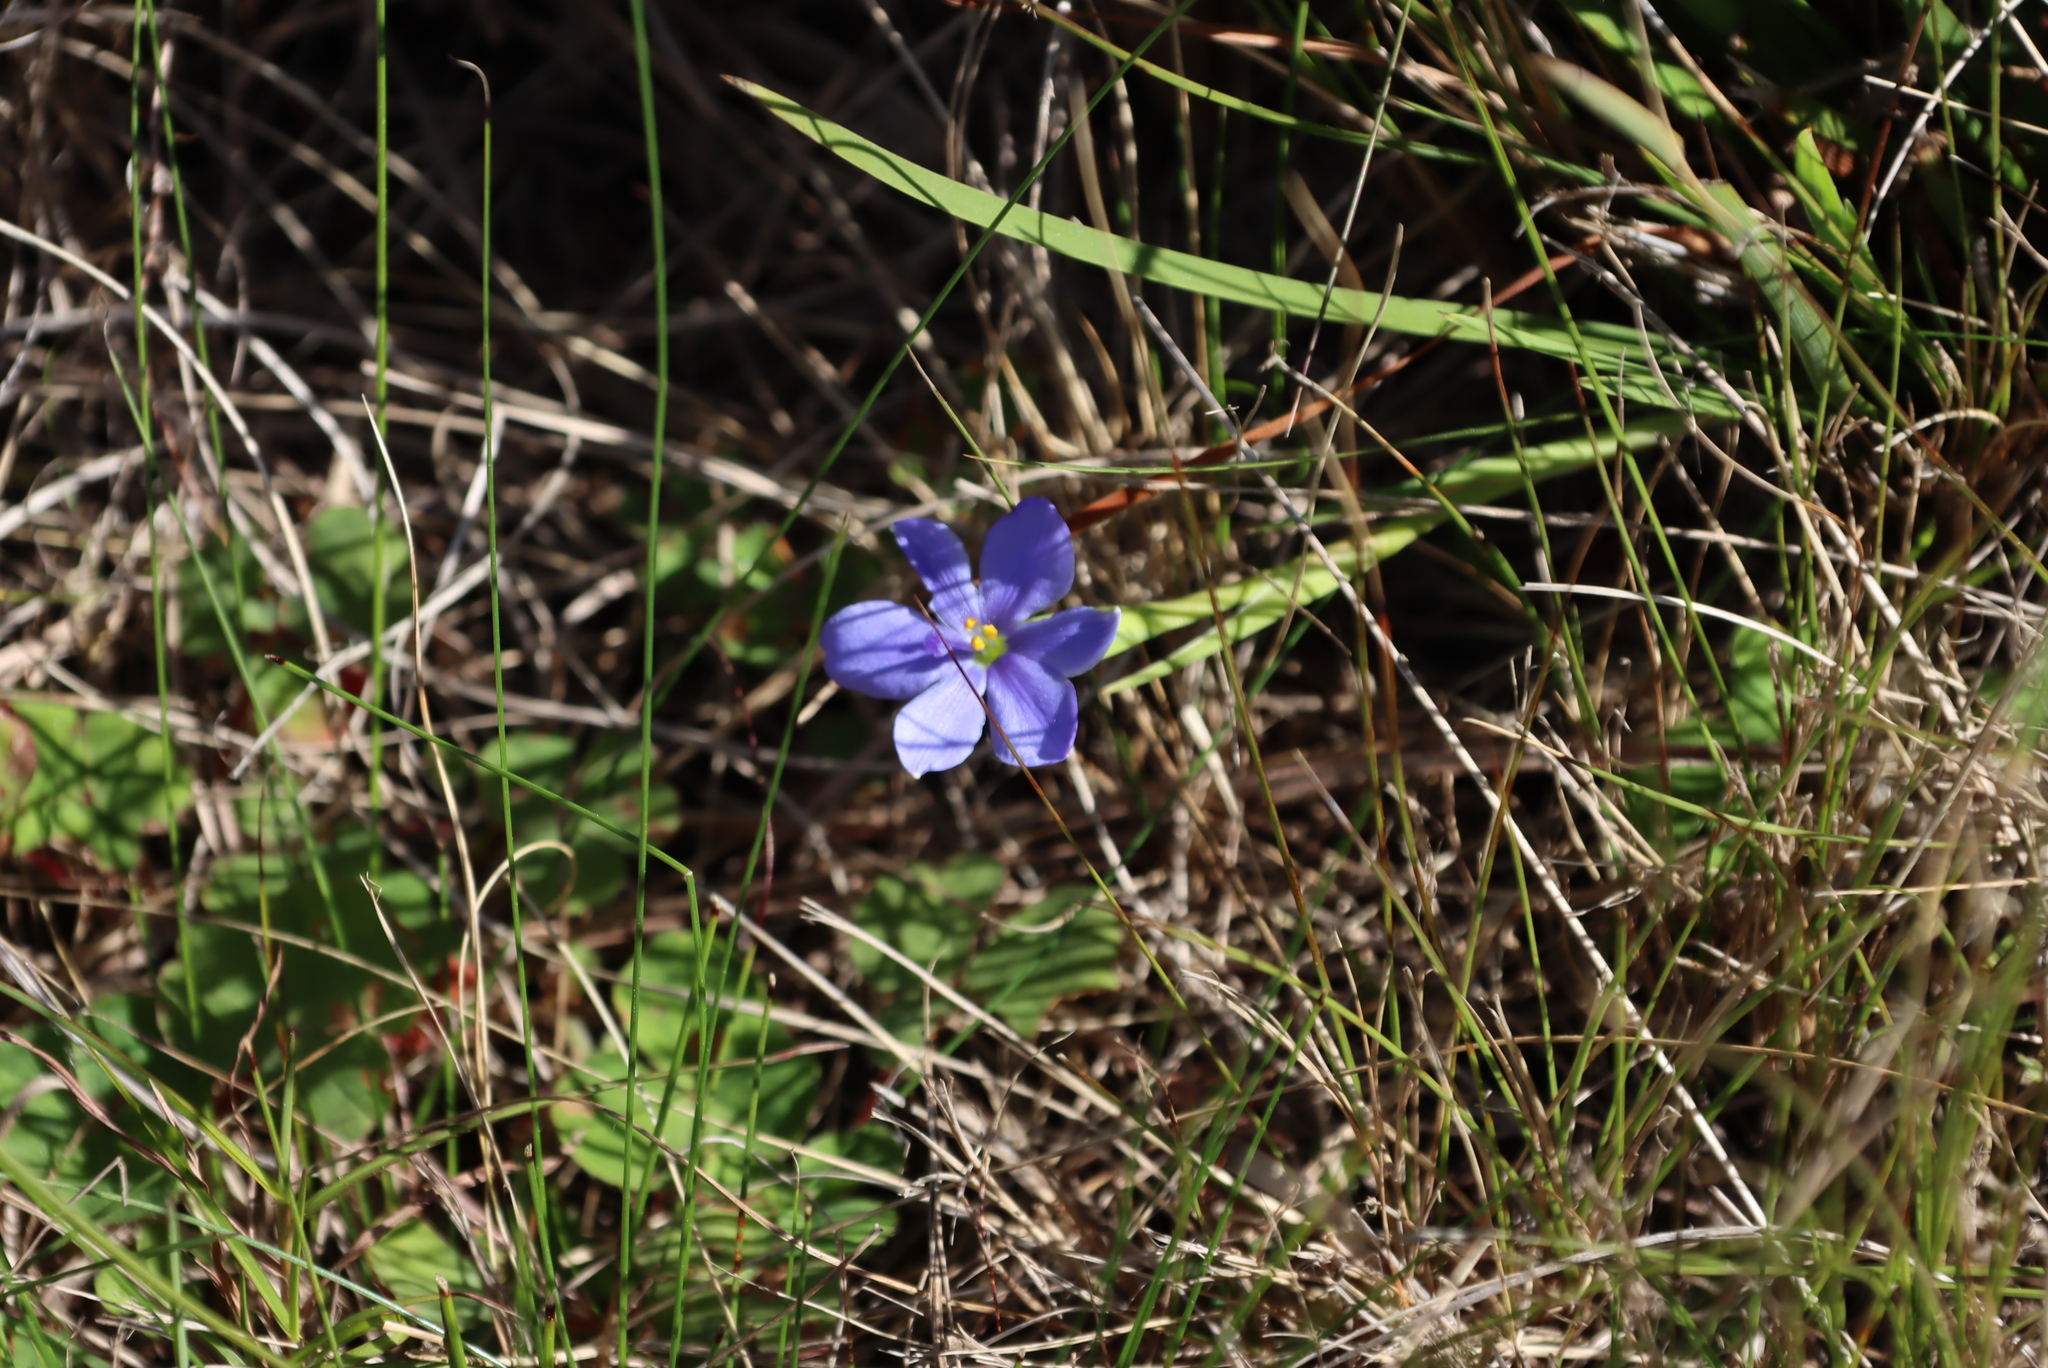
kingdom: Plantae
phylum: Tracheophyta
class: Liliopsida
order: Asparagales
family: Iridaceae
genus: Aristea
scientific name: Aristea pusilla
